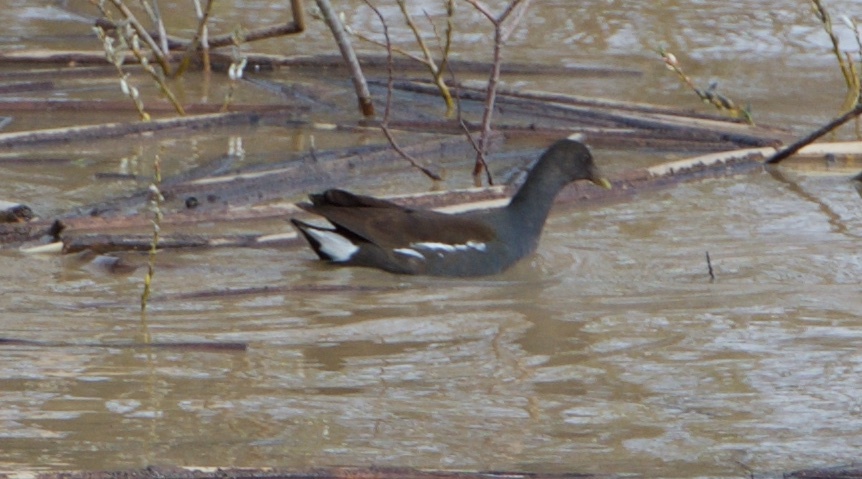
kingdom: Animalia
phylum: Chordata
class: Aves
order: Gruiformes
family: Rallidae
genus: Gallinula
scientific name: Gallinula chloropus
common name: Common moorhen
